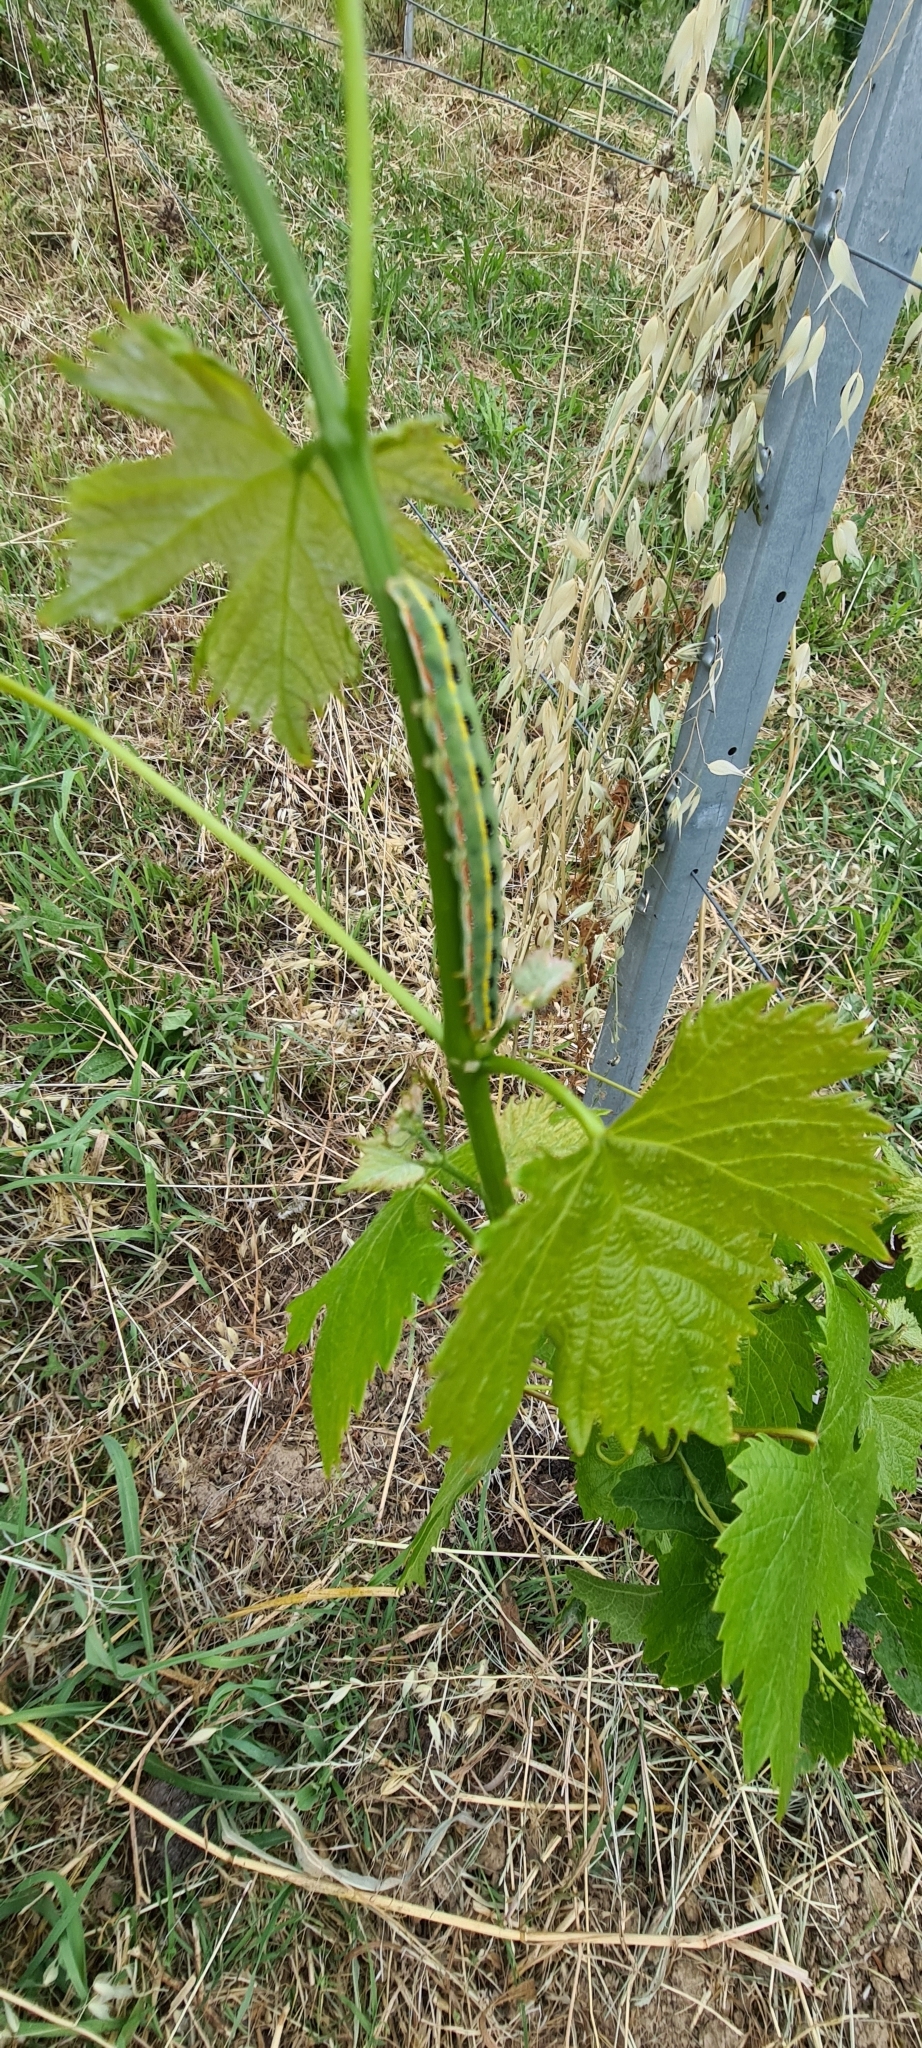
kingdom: Animalia
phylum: Arthropoda
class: Insecta
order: Lepidoptera
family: Noctuidae
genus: Xylena
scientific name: Xylena exsoleta
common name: Sword-grass
